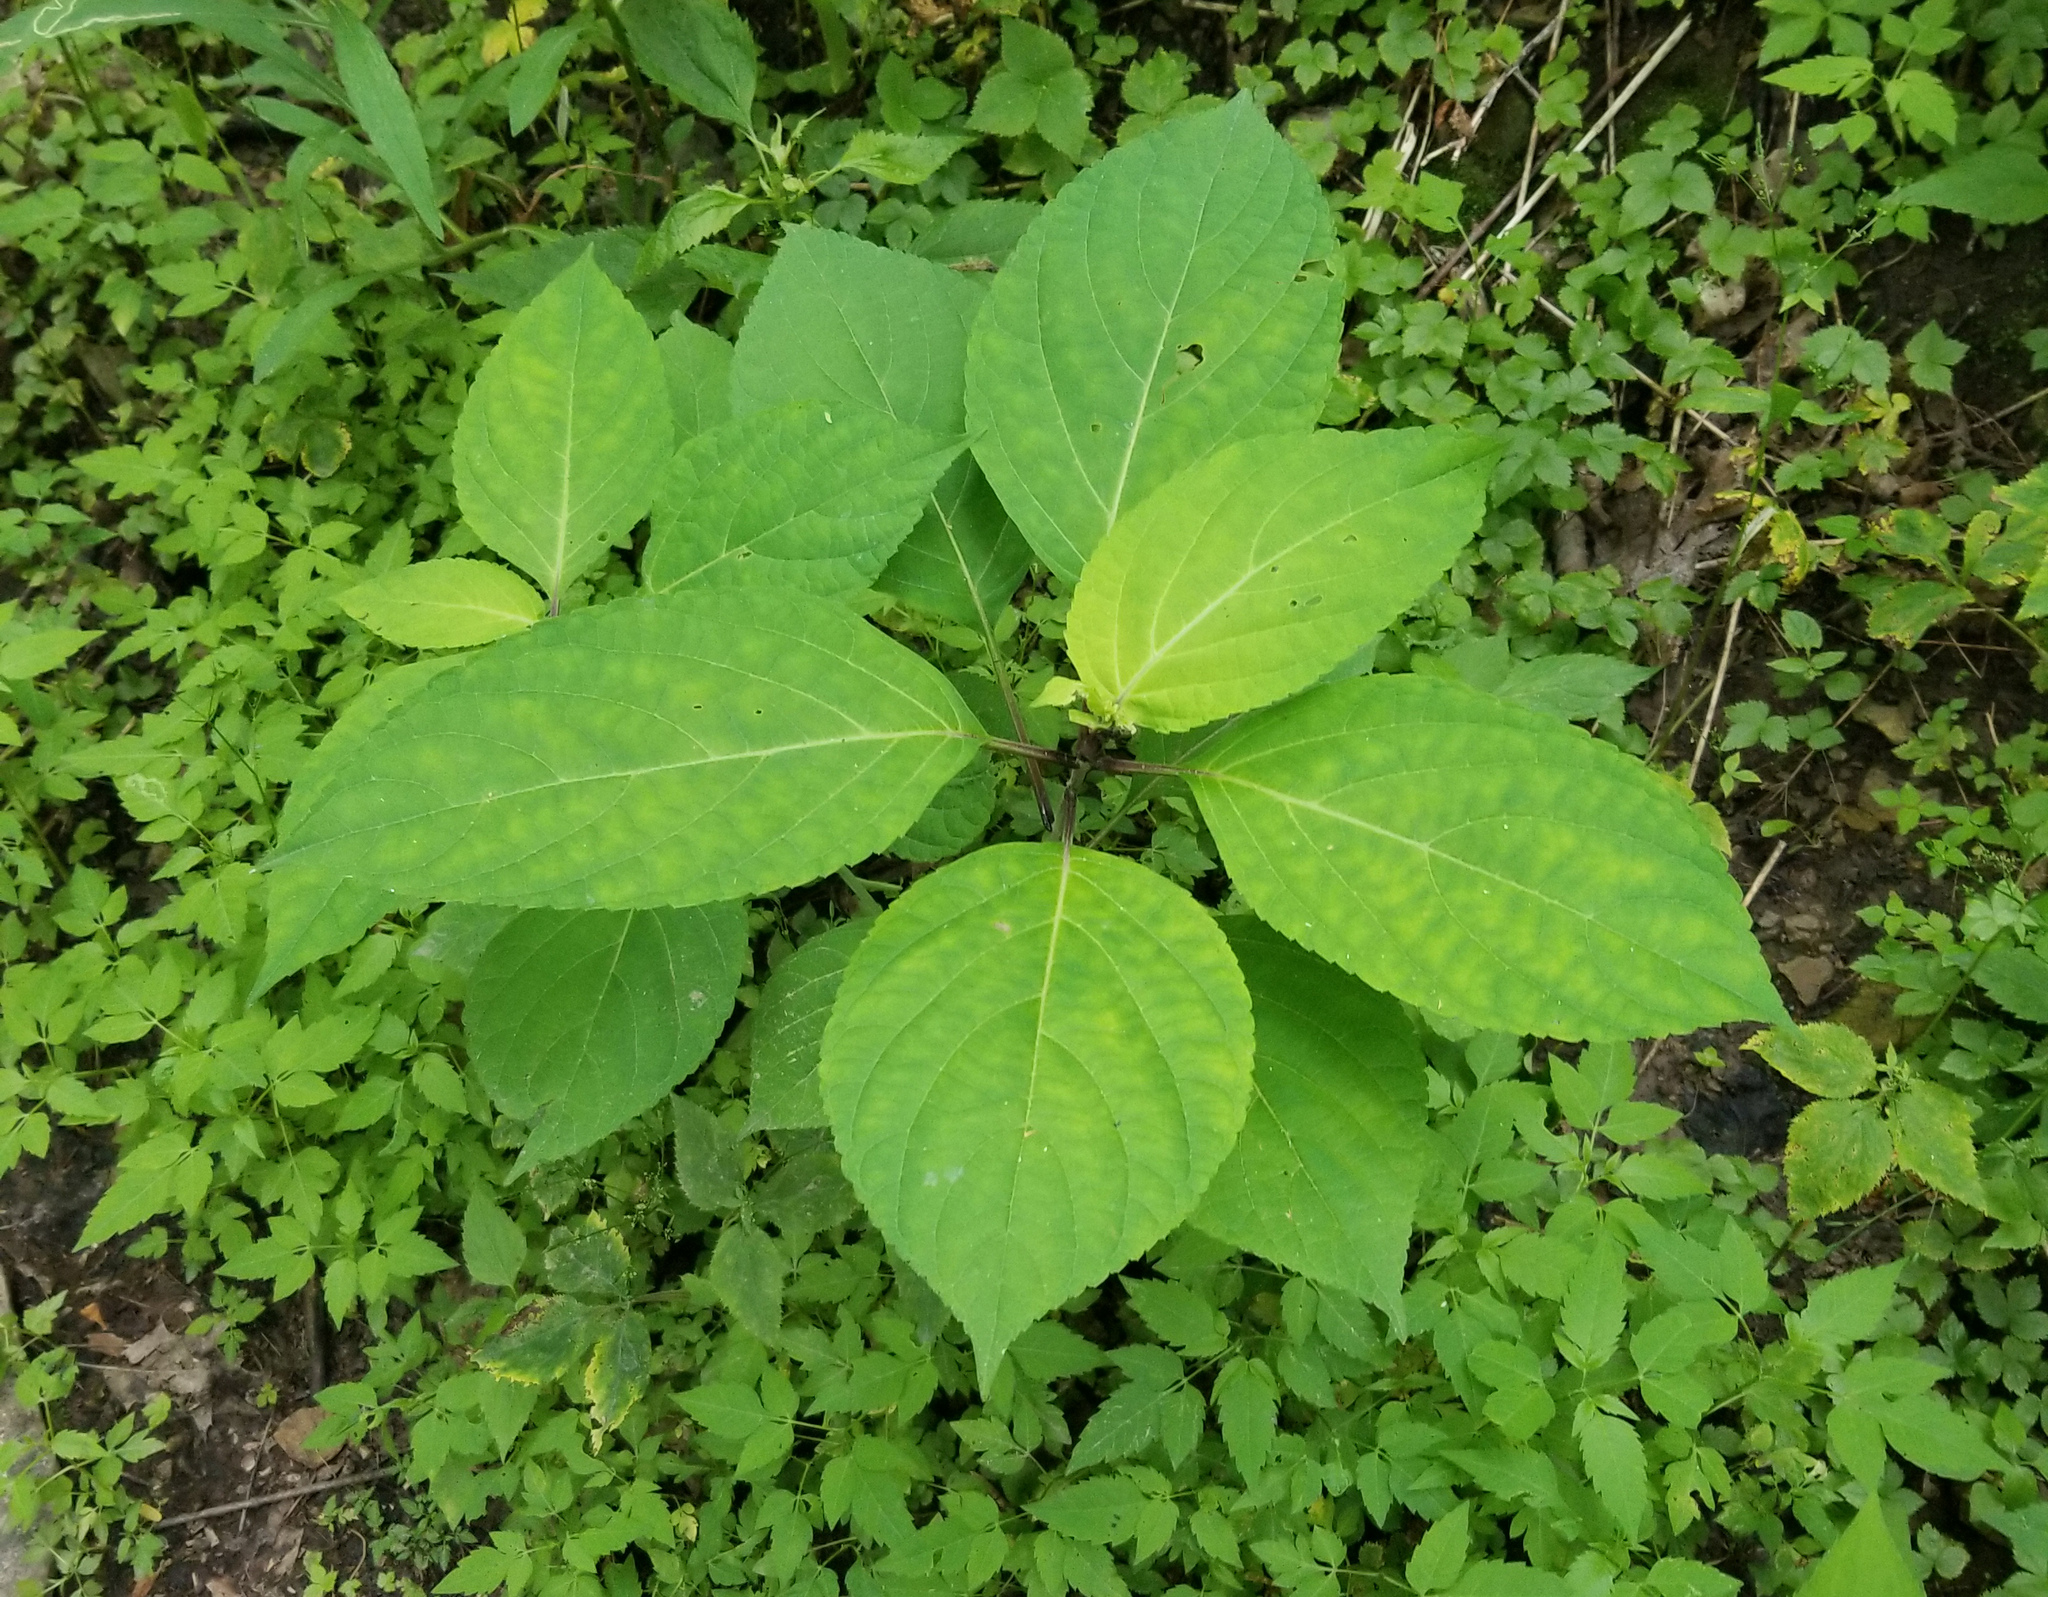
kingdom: Plantae
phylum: Tracheophyta
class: Magnoliopsida
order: Lamiales
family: Lamiaceae
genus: Collinsonia
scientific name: Collinsonia canadensis
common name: Northern horsebalm
